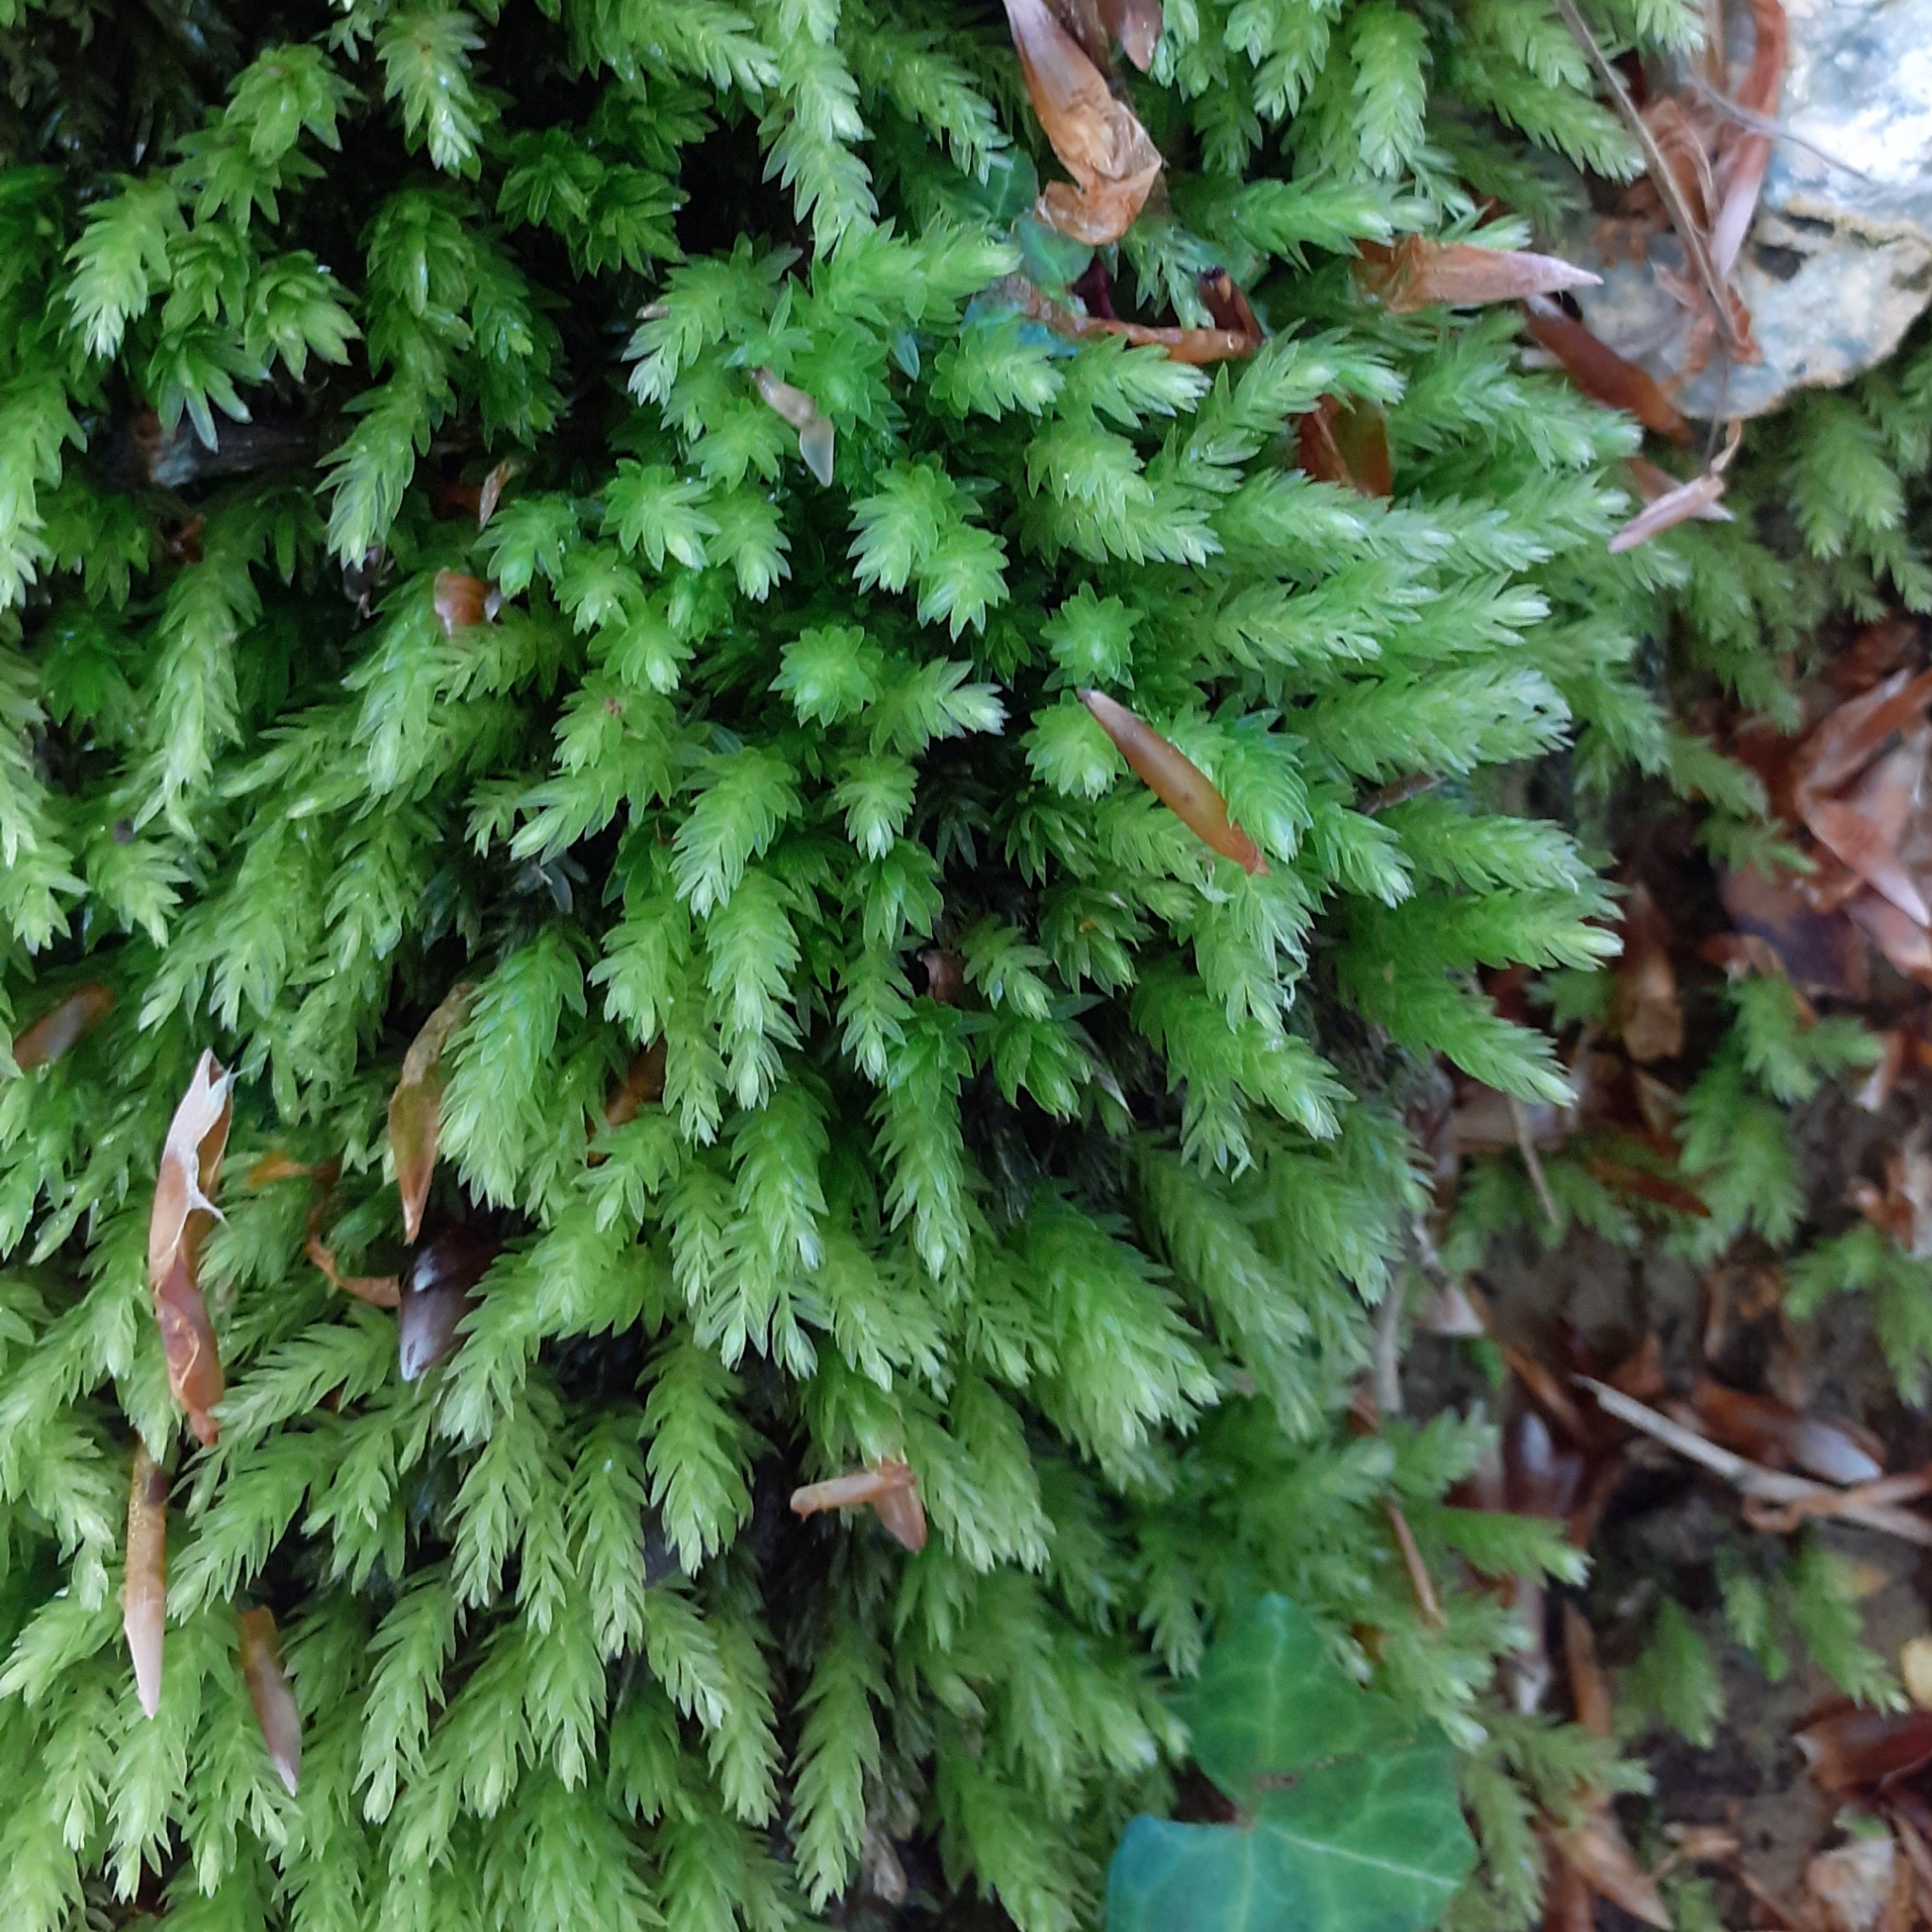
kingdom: Plantae
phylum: Bryophyta
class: Bryopsida
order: Bryales
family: Mniaceae
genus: Mnium
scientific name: Mnium hornum
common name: Swan's-neck leafy moss
